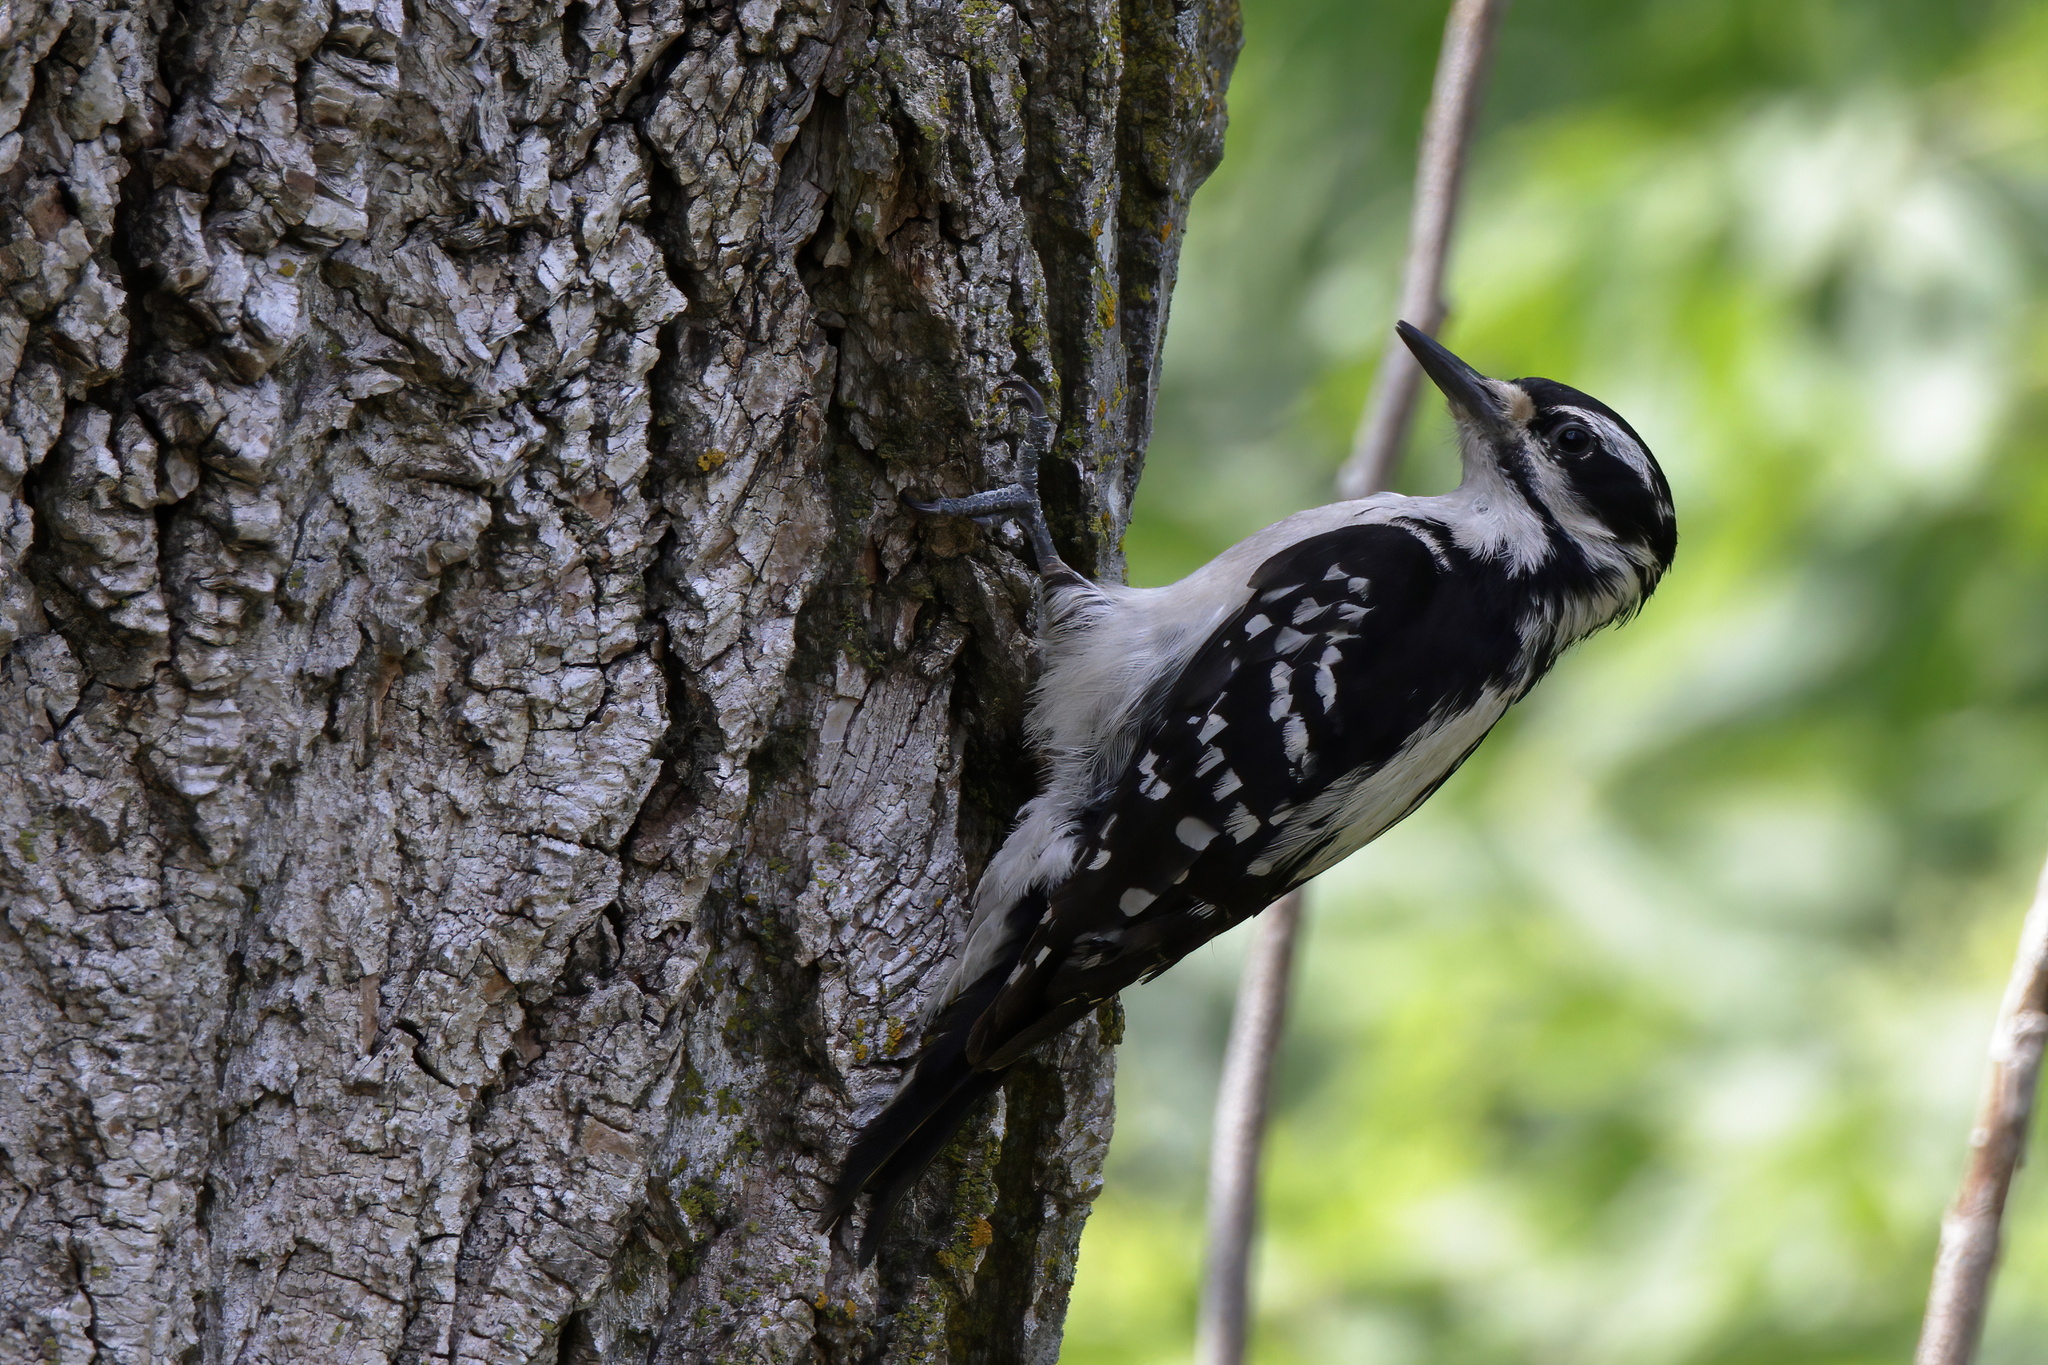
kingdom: Animalia
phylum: Chordata
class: Aves
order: Piciformes
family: Picidae
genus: Leuconotopicus
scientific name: Leuconotopicus villosus
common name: Hairy woodpecker
